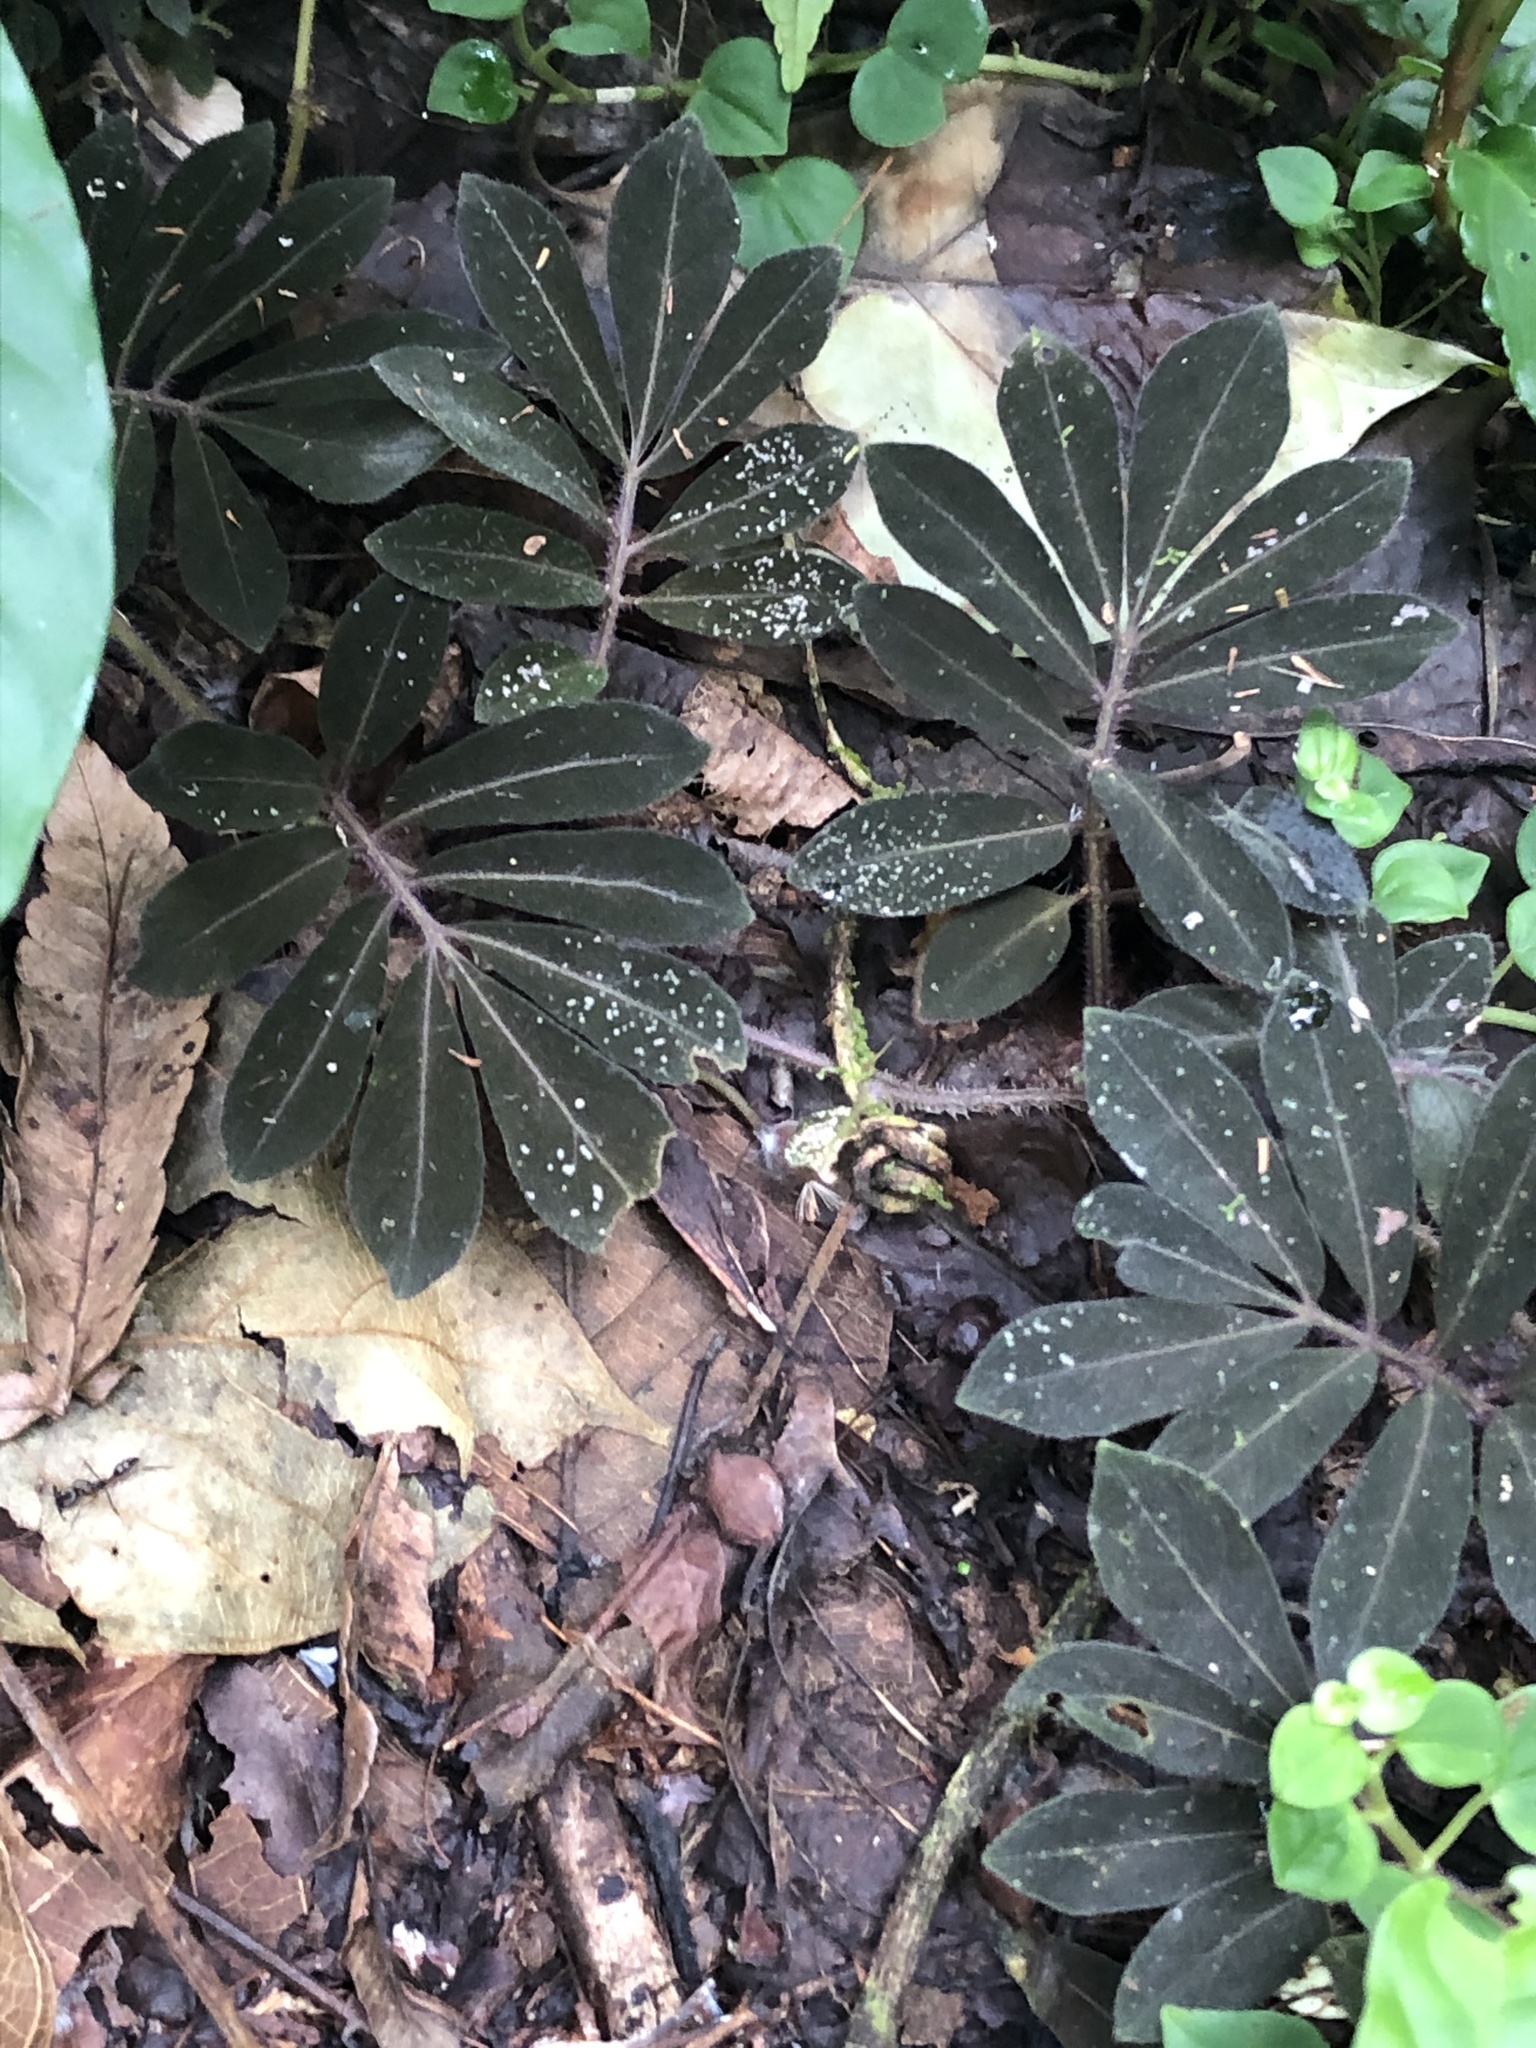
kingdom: Plantae
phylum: Tracheophyta
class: Magnoliopsida
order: Solanales
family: Solanaceae
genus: Solanum
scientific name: Solanum uleanum
